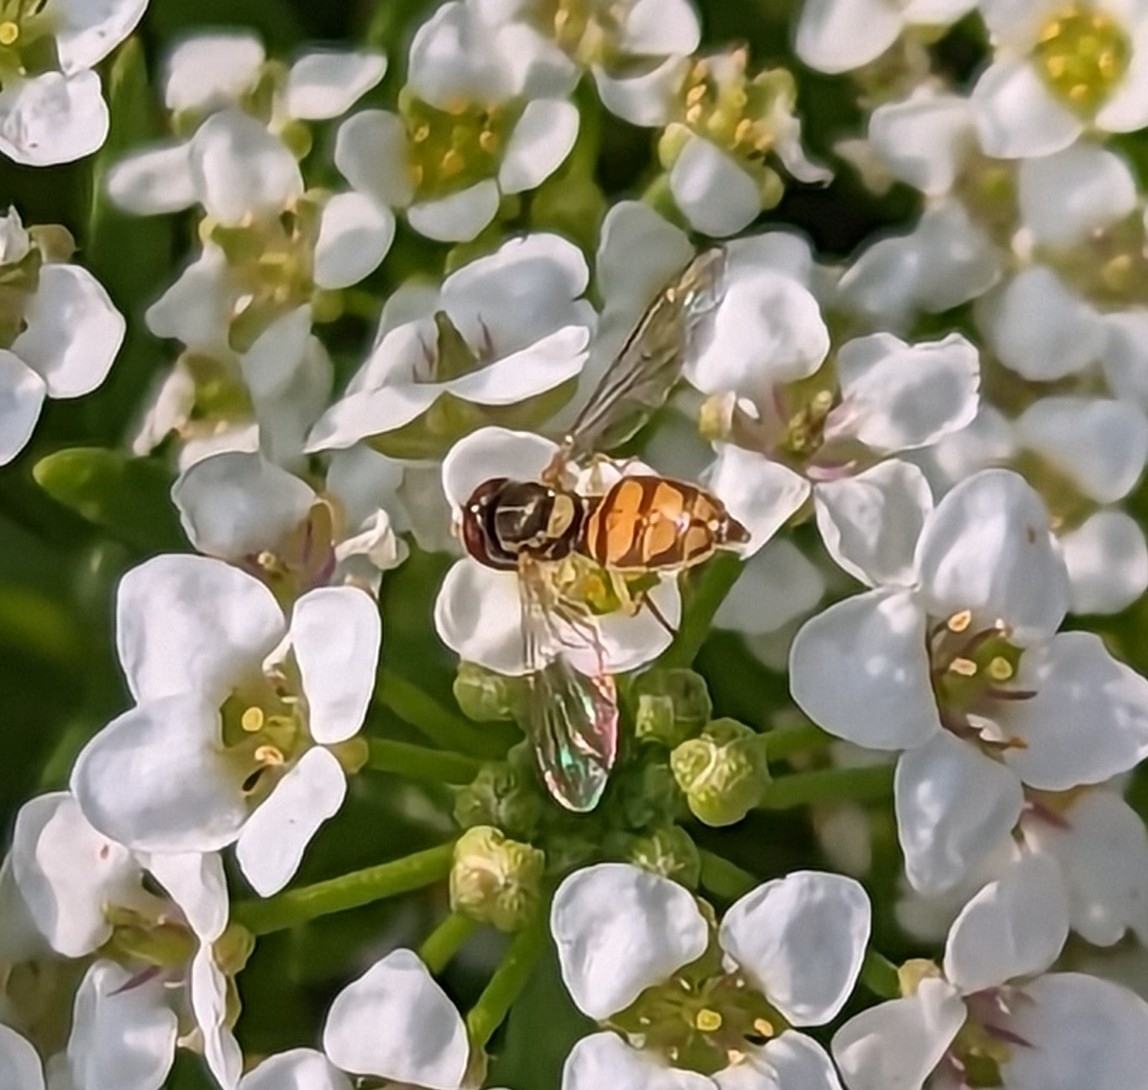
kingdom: Animalia
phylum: Arthropoda
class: Insecta
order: Diptera
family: Syrphidae
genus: Toxomerus
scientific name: Toxomerus marginatus
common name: Syrphid fly
